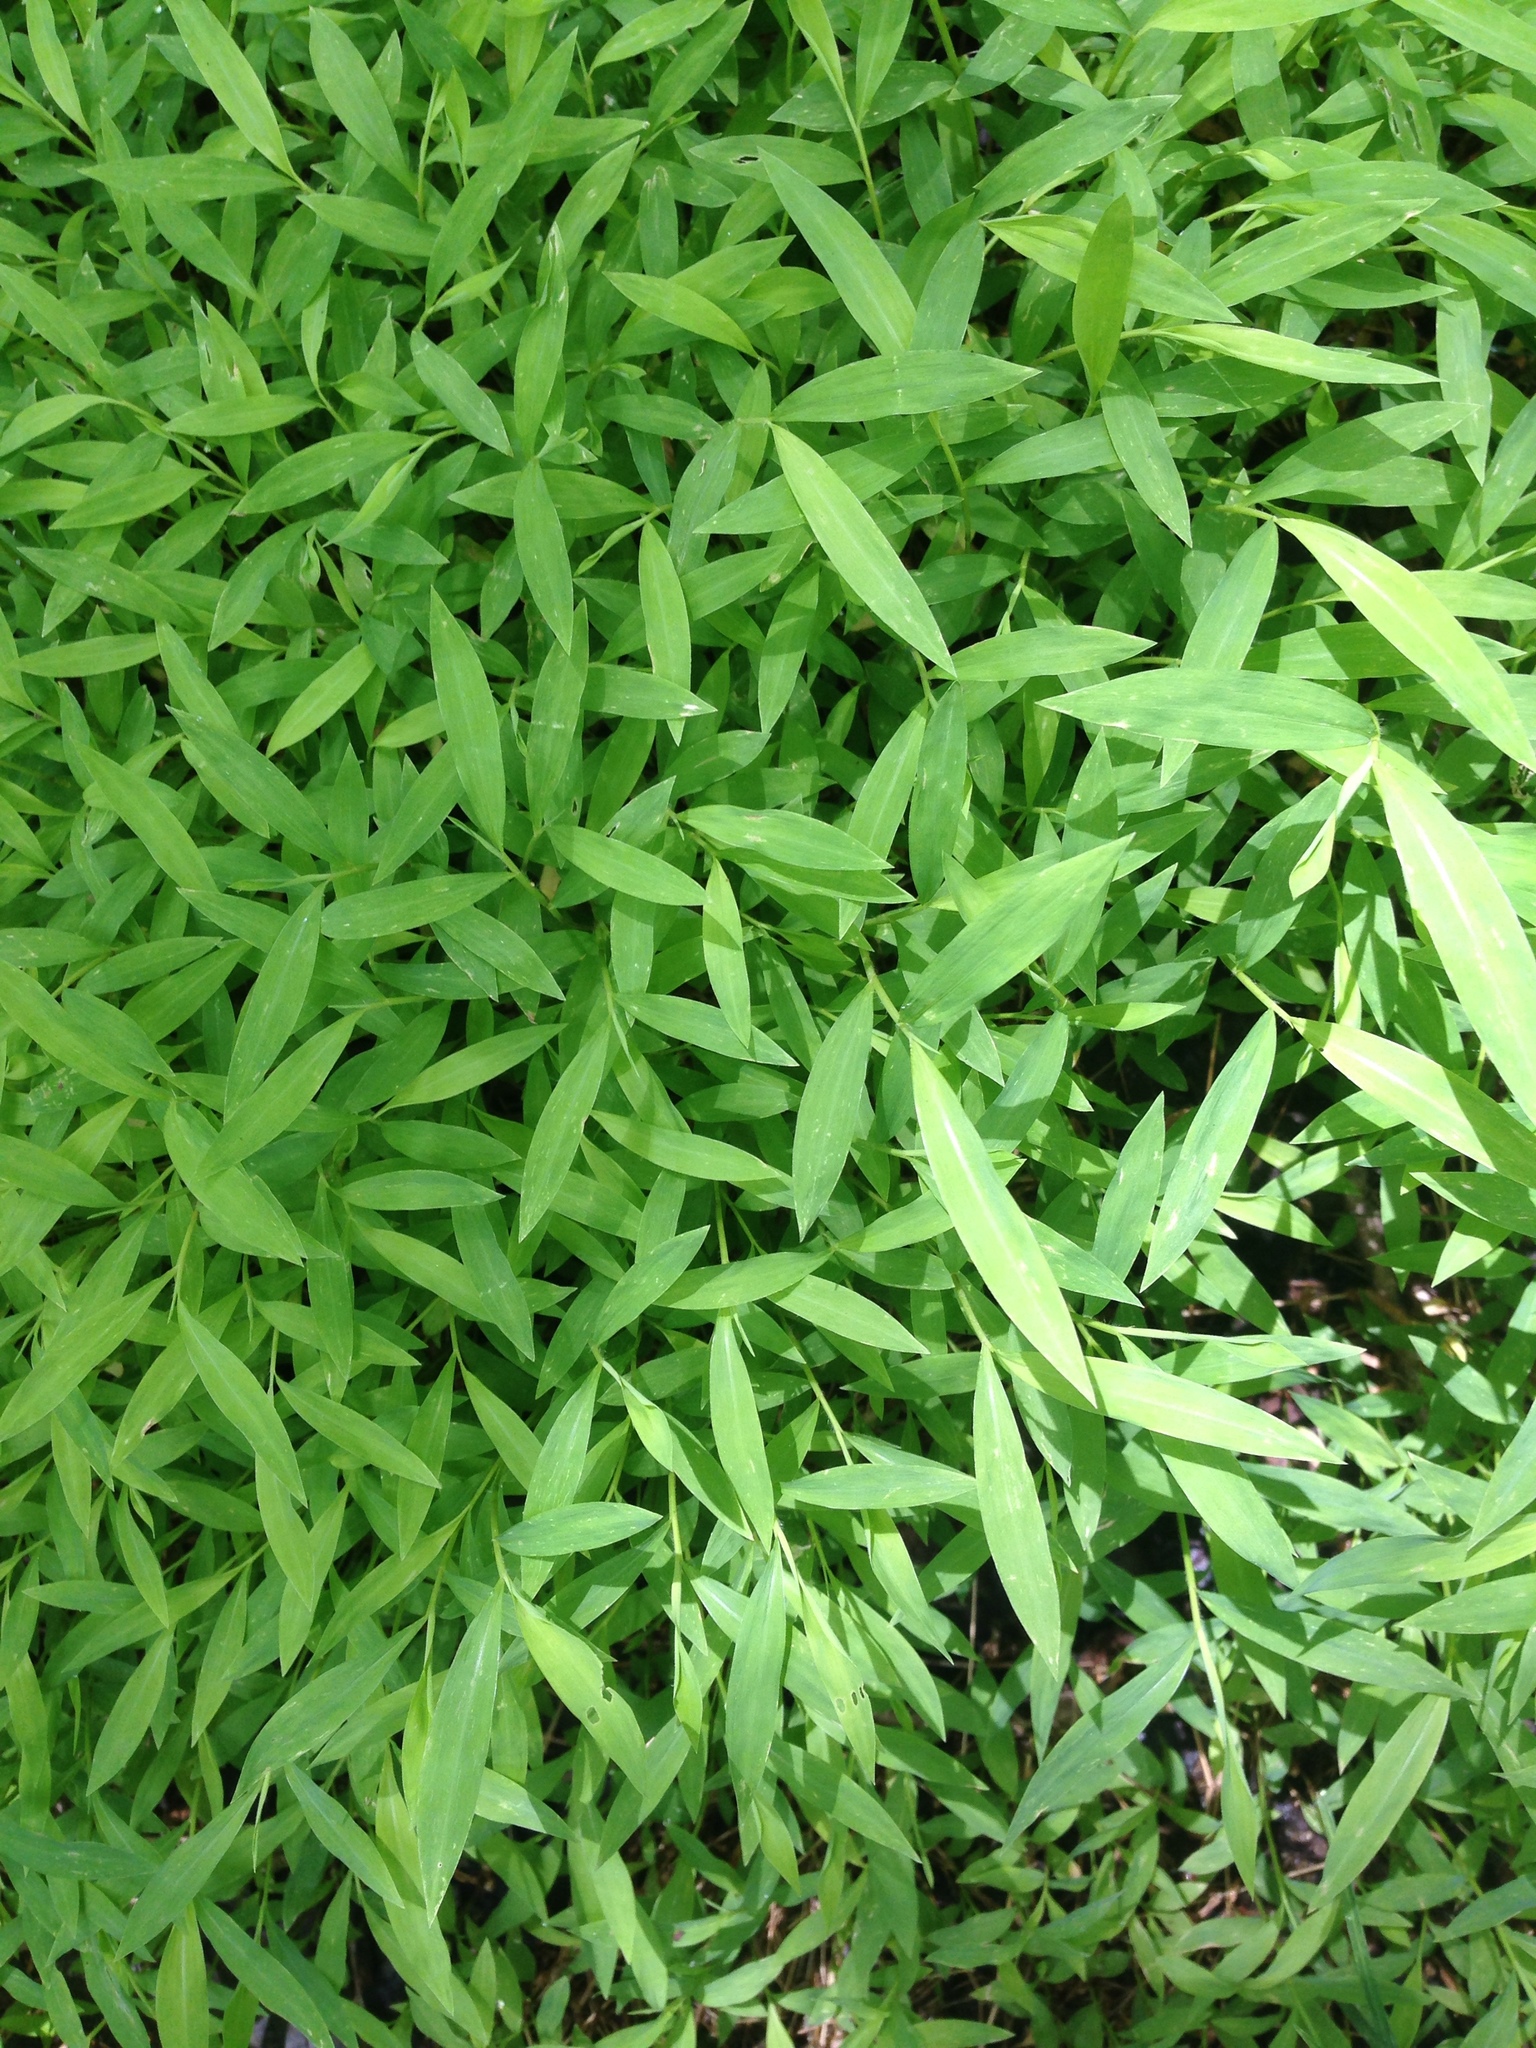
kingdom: Plantae
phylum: Tracheophyta
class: Liliopsida
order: Poales
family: Poaceae
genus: Microstegium
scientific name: Microstegium vimineum
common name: Japanese stiltgrass
